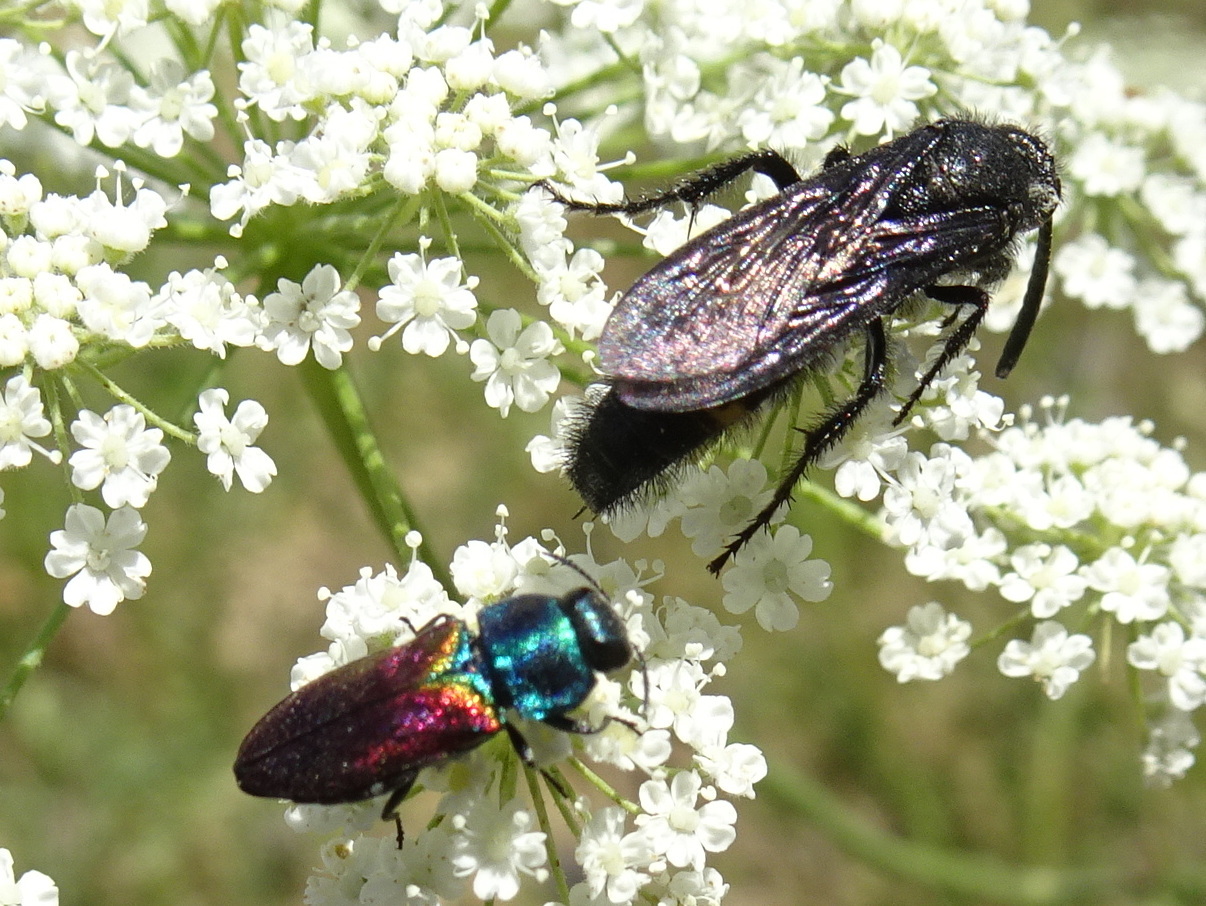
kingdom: Animalia
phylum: Arthropoda
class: Insecta
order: Hymenoptera
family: Scoliidae
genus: Scolia
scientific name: Scolia hirta
